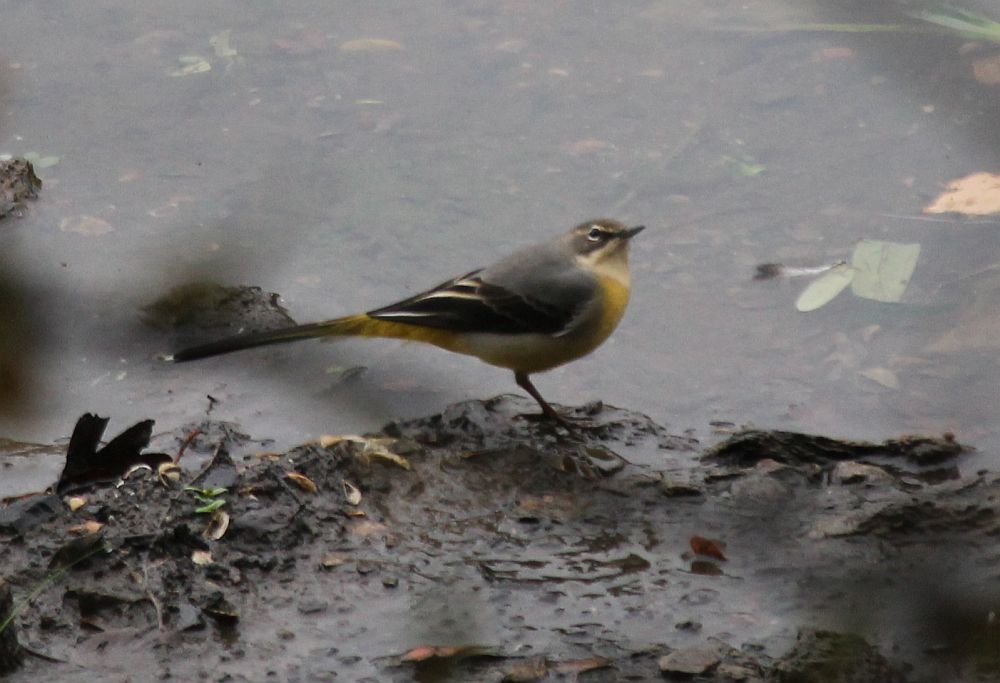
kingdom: Animalia
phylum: Chordata
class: Aves
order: Passeriformes
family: Motacillidae
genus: Motacilla
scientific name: Motacilla cinerea
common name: Grey wagtail
